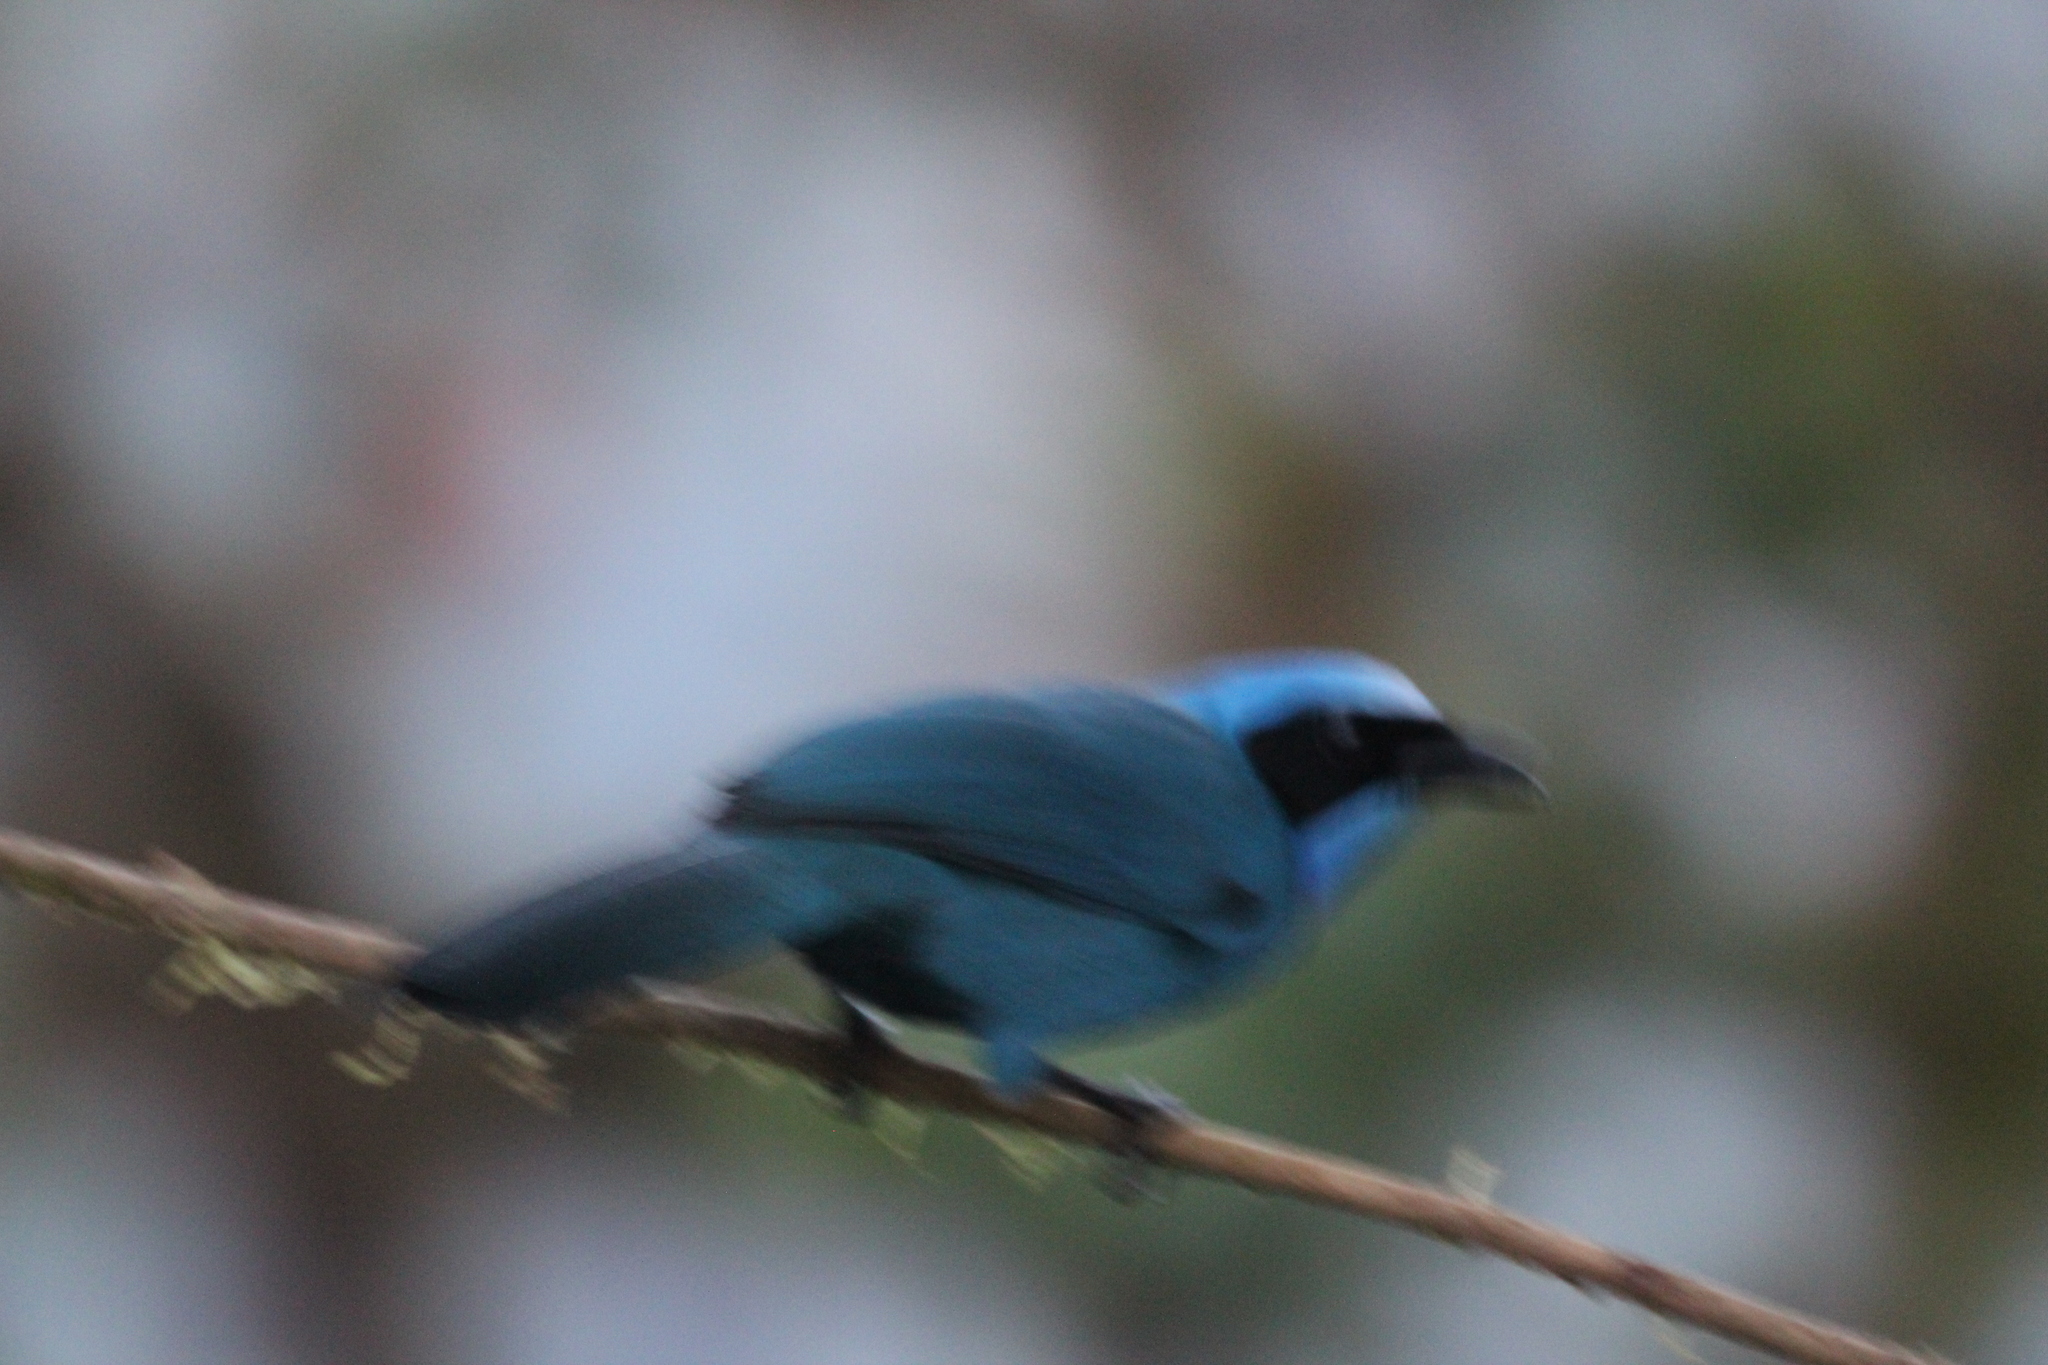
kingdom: Animalia
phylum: Chordata
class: Aves
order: Passeriformes
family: Corvidae
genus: Cyanolyca
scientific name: Cyanolyca turcosa
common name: Turquoise jay
